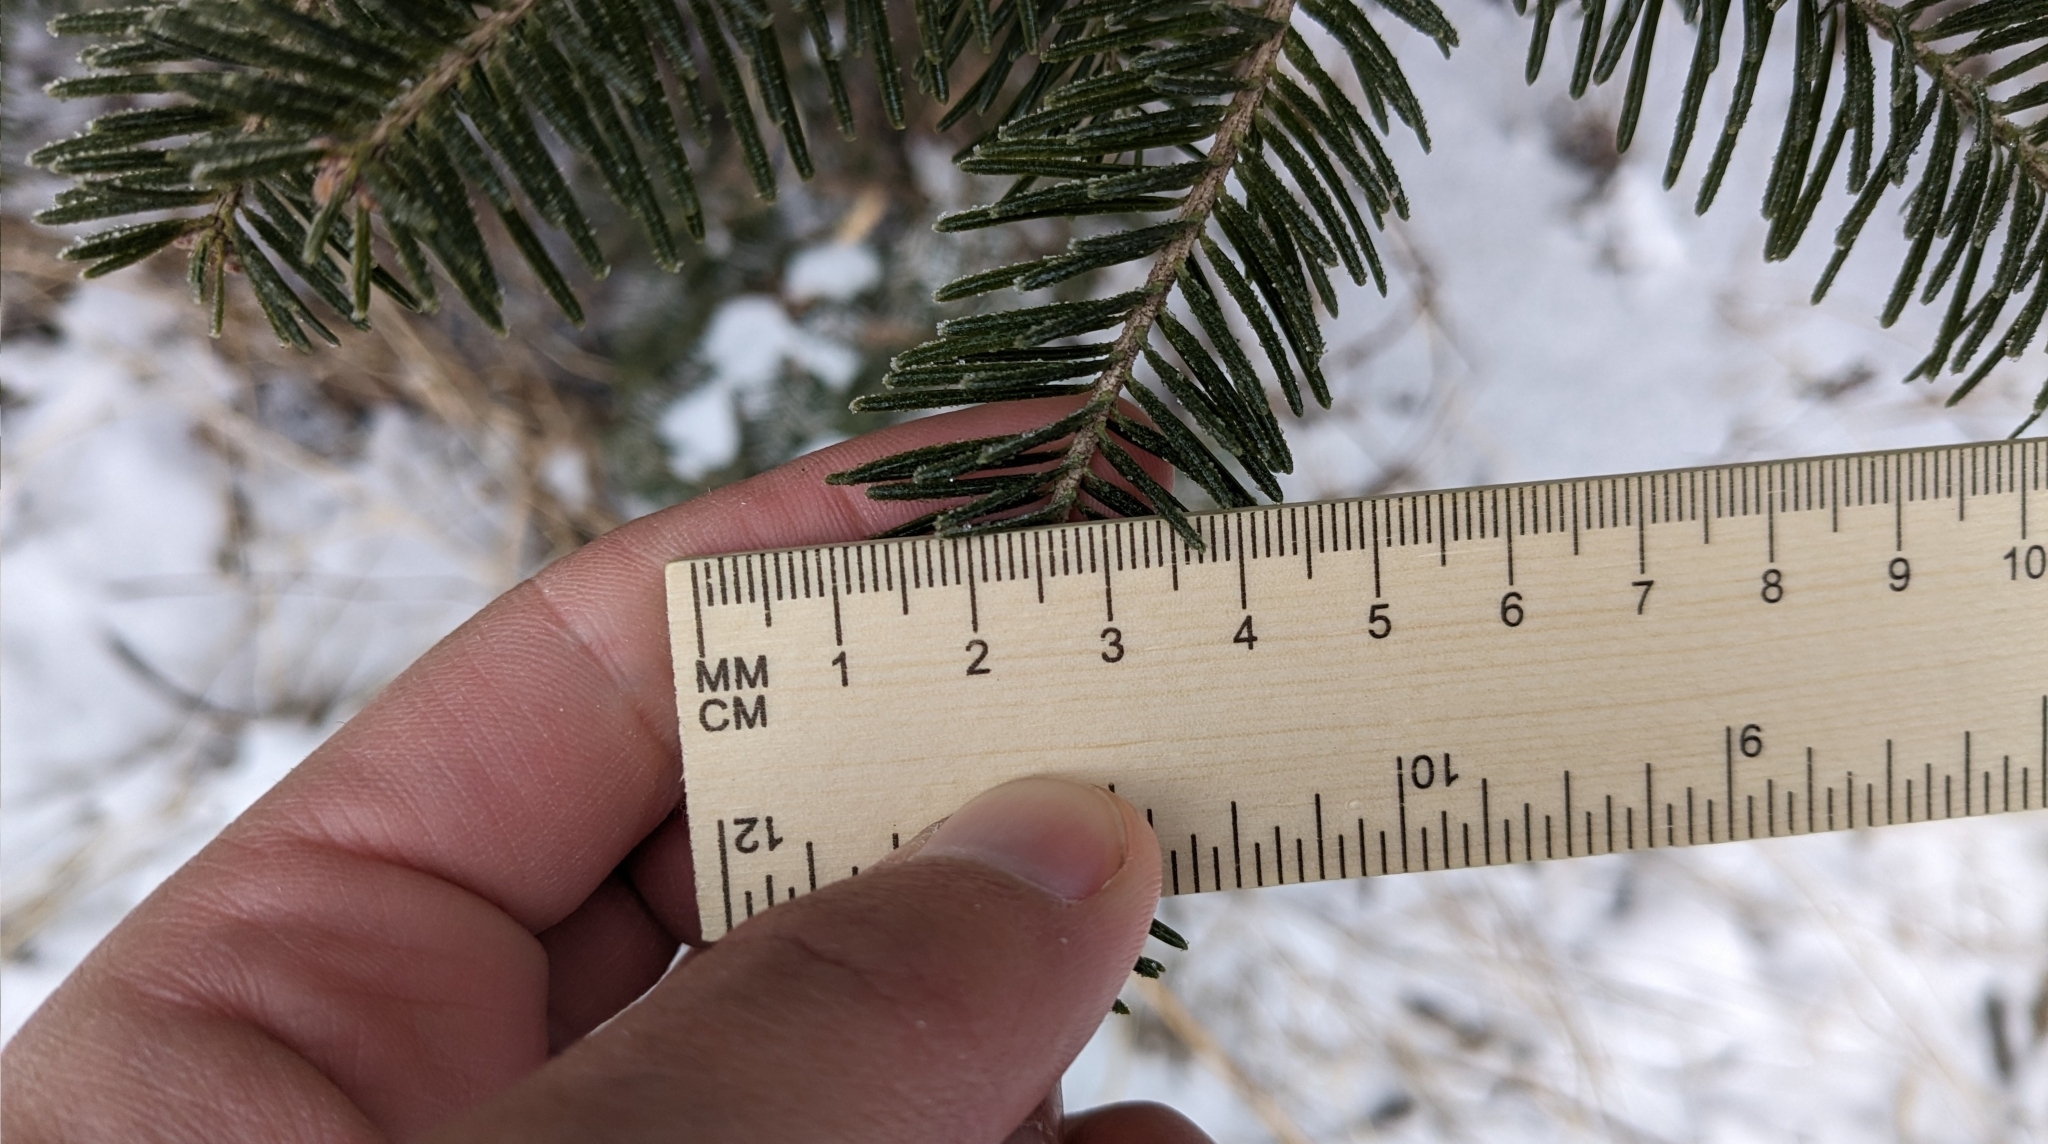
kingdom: Plantae
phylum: Tracheophyta
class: Pinopsida
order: Pinales
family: Pinaceae
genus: Abies
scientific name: Abies balsamea
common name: Balsam fir
